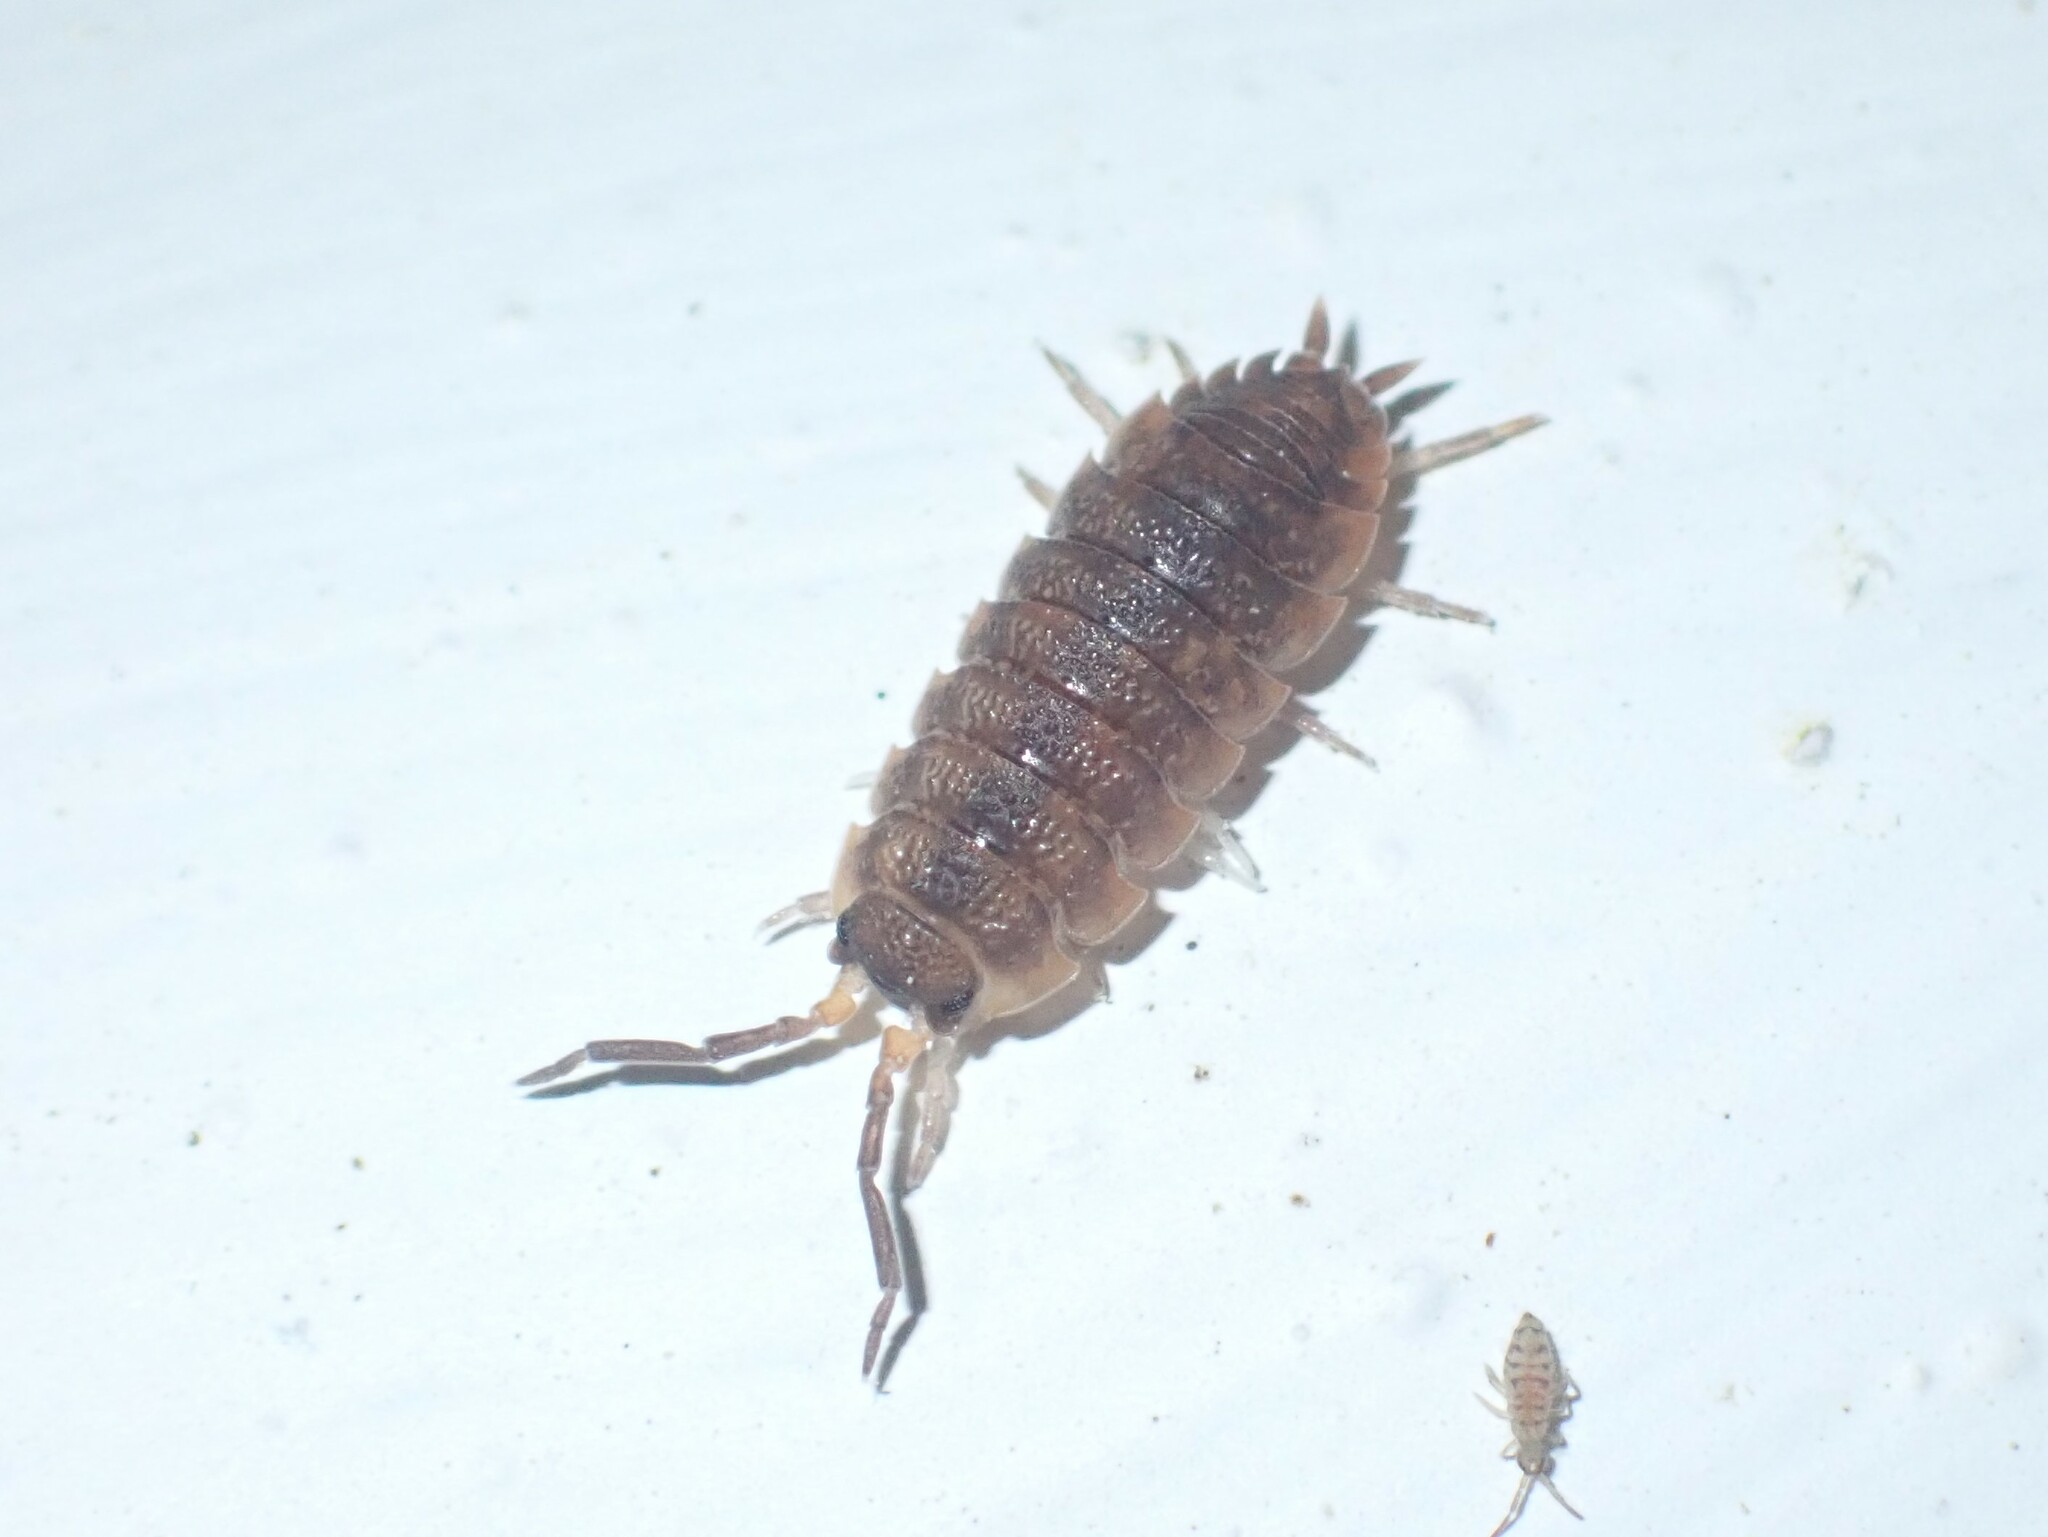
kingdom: Animalia
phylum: Arthropoda
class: Malacostraca
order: Isopoda
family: Porcellionidae
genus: Porcellio
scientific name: Porcellio scaber
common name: Common rough woodlouse
